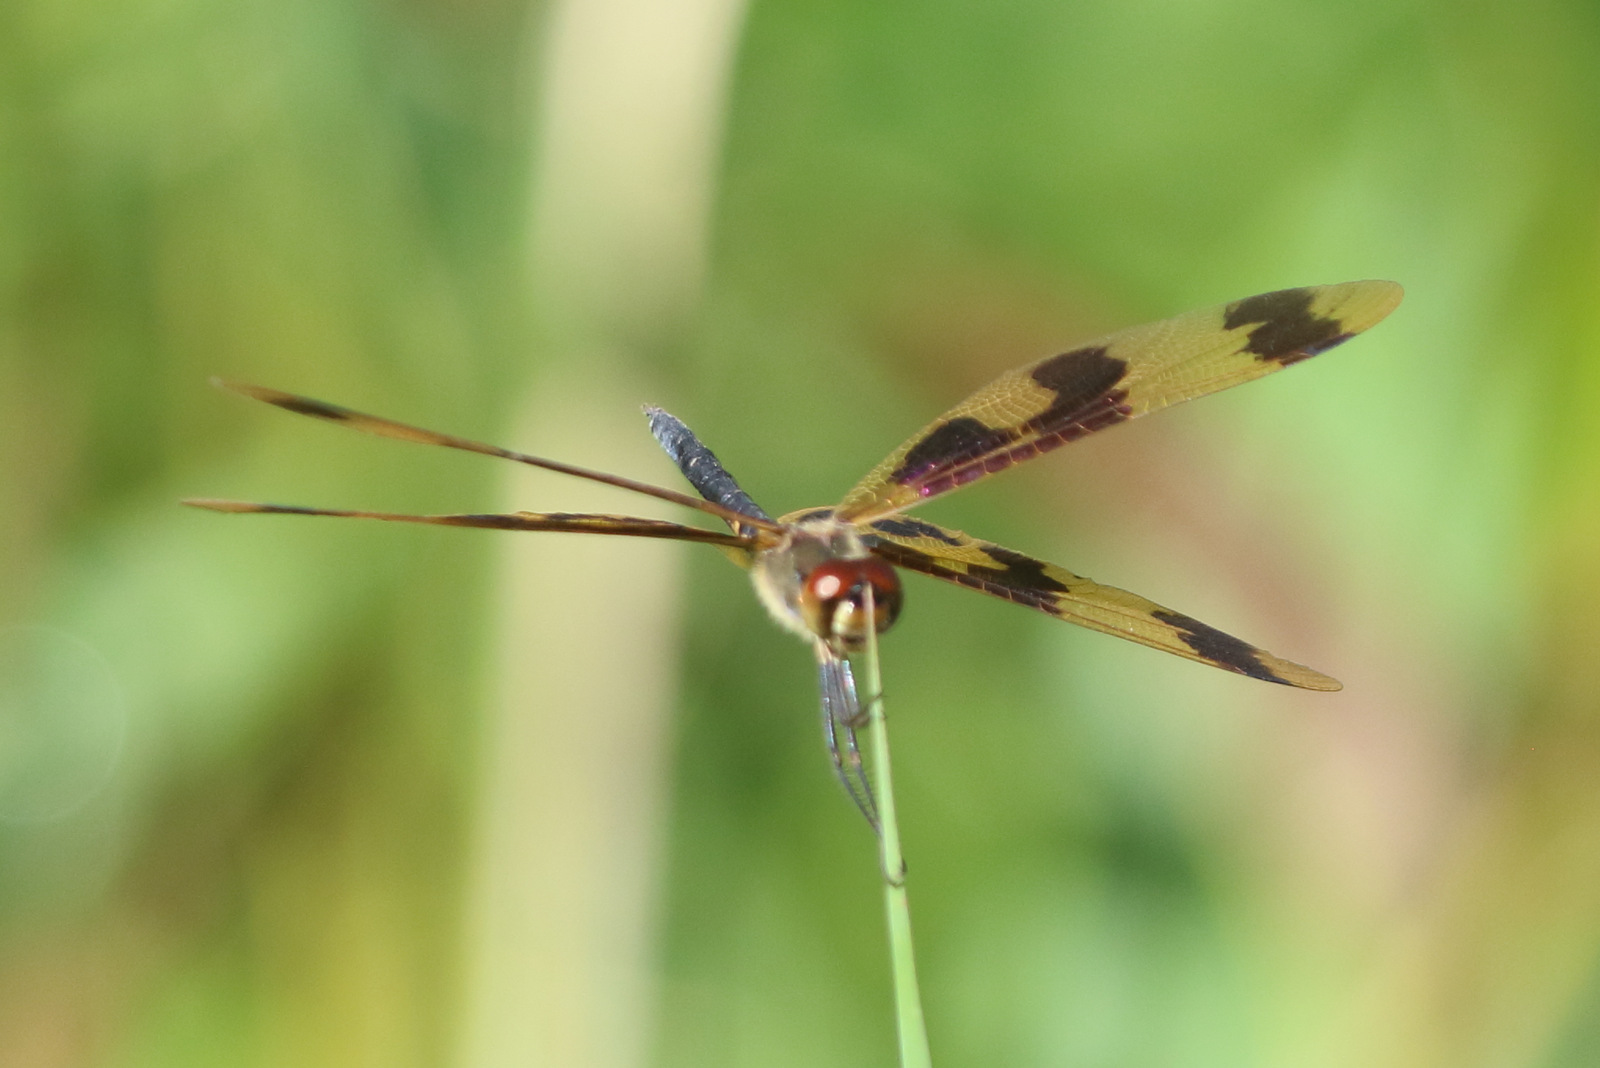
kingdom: Animalia
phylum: Arthropoda
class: Insecta
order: Odonata
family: Libellulidae
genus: Rhyothemis
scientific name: Rhyothemis graphiptera
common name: Graphic flutterer
